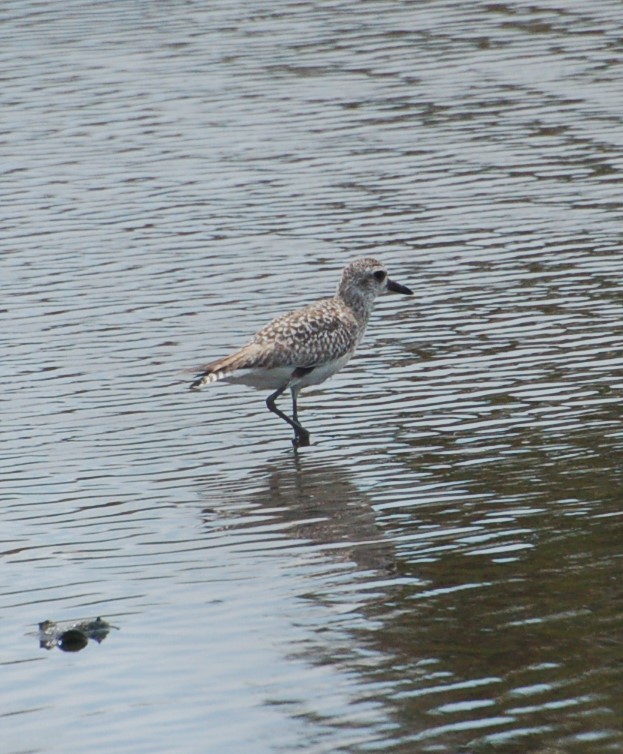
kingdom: Animalia
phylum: Chordata
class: Aves
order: Charadriiformes
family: Charadriidae
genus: Pluvialis
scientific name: Pluvialis squatarola
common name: Grey plover
